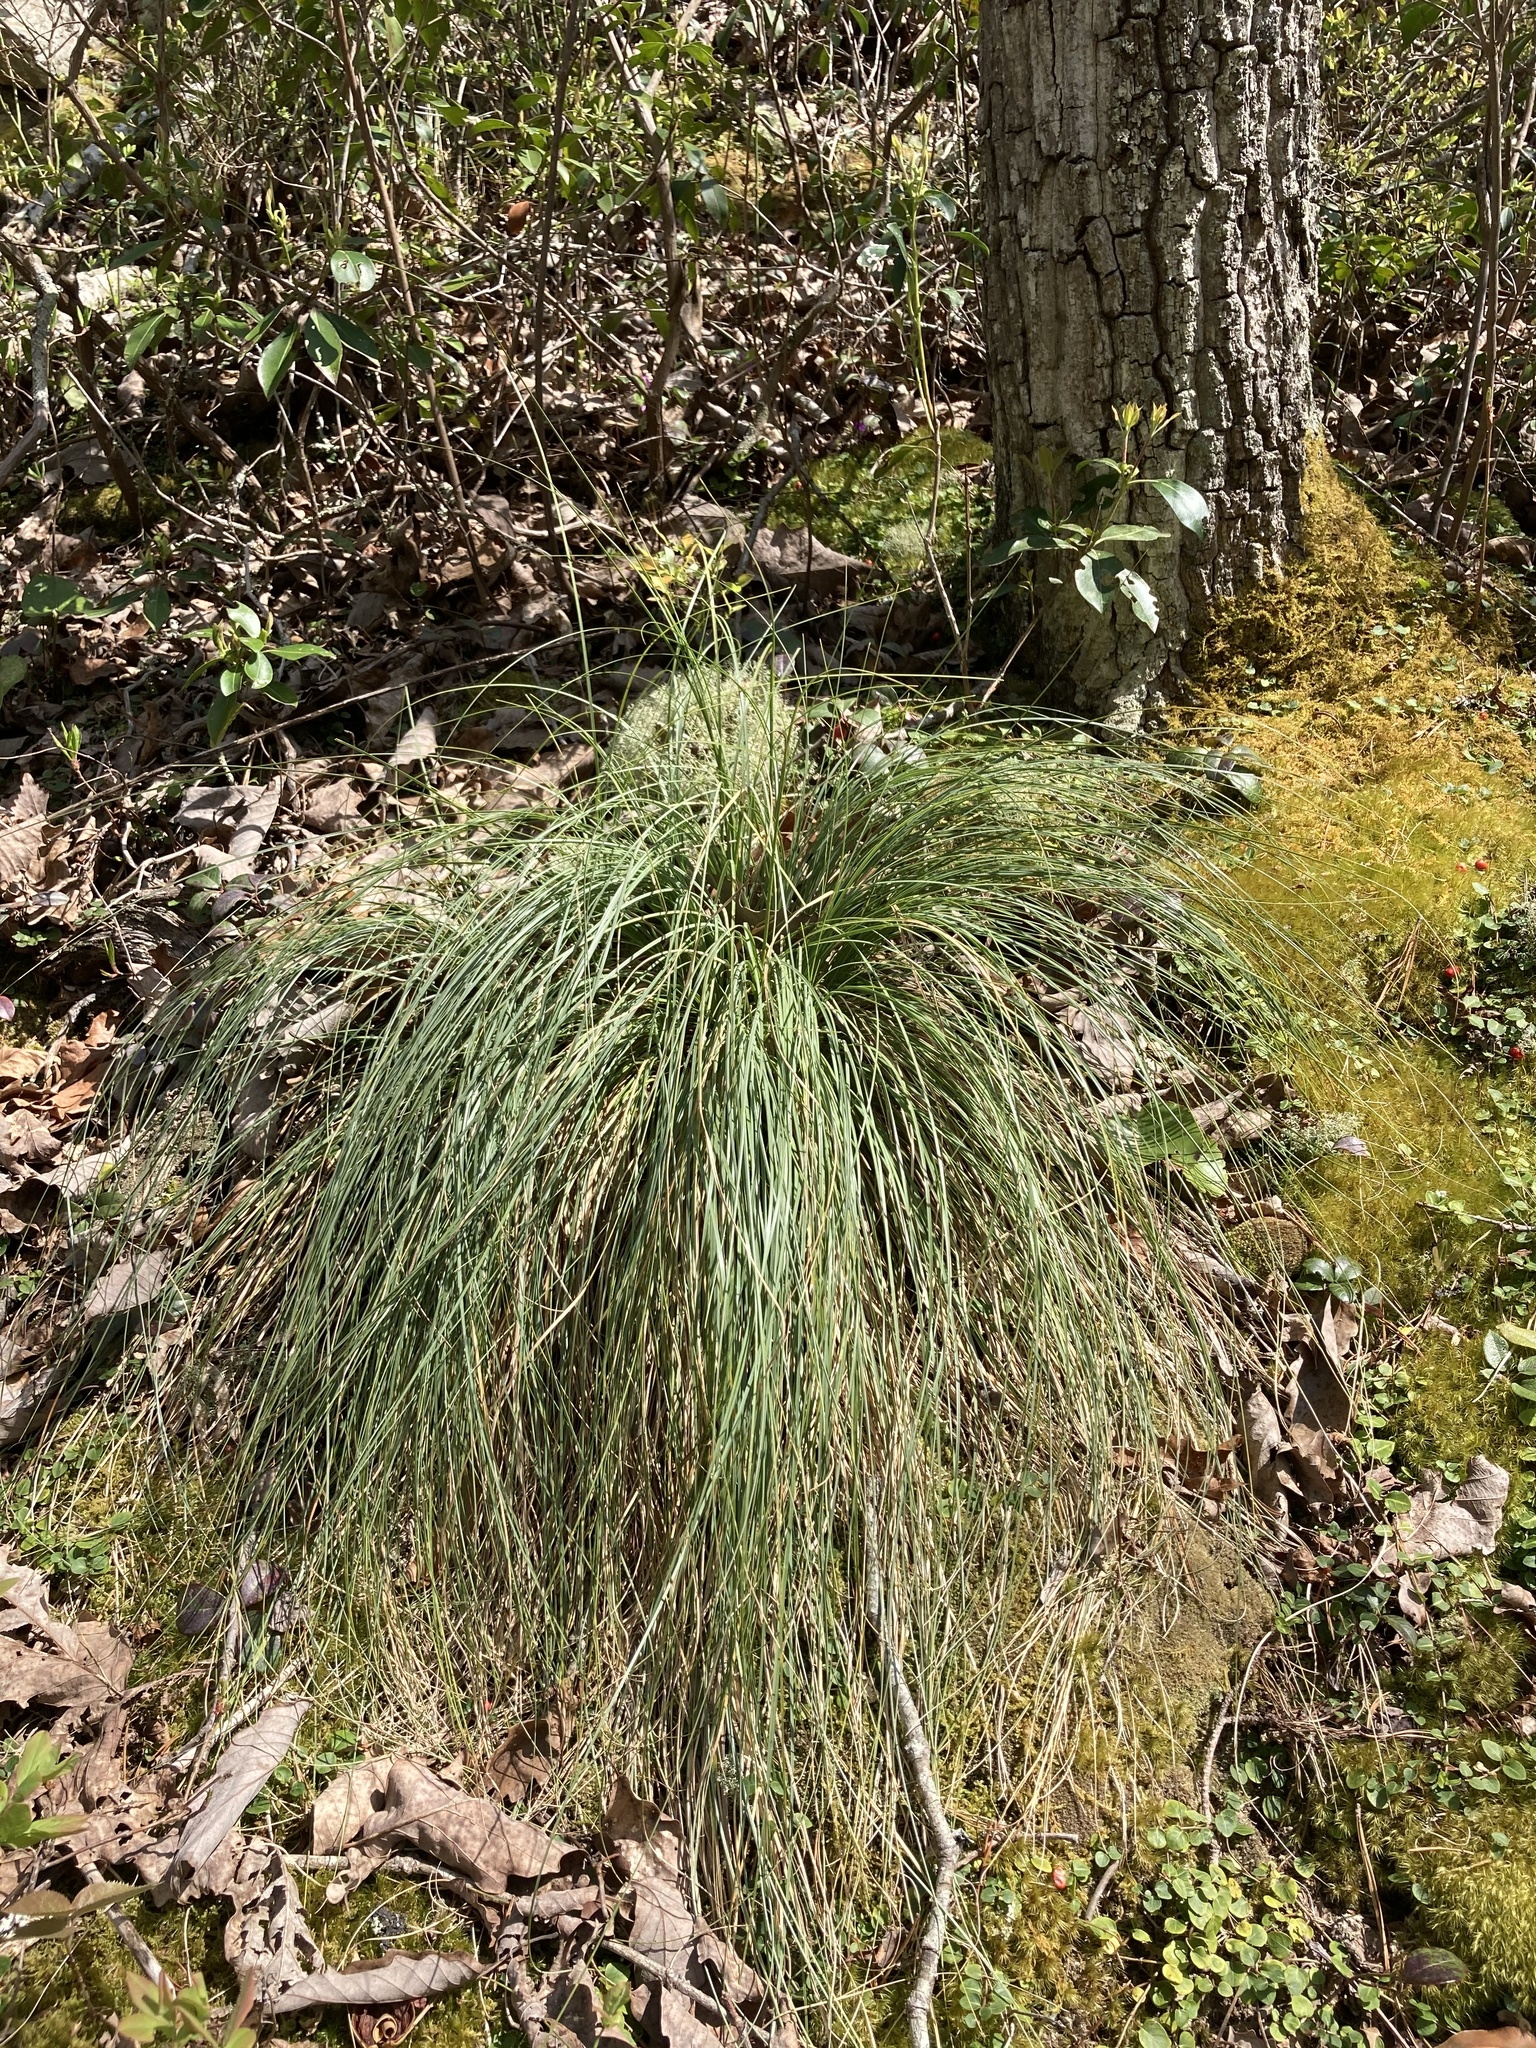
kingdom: Plantae
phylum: Tracheophyta
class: Liliopsida
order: Liliales
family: Melanthiaceae
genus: Xerophyllum
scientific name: Xerophyllum asphodeloides
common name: Mountain-asphodel
